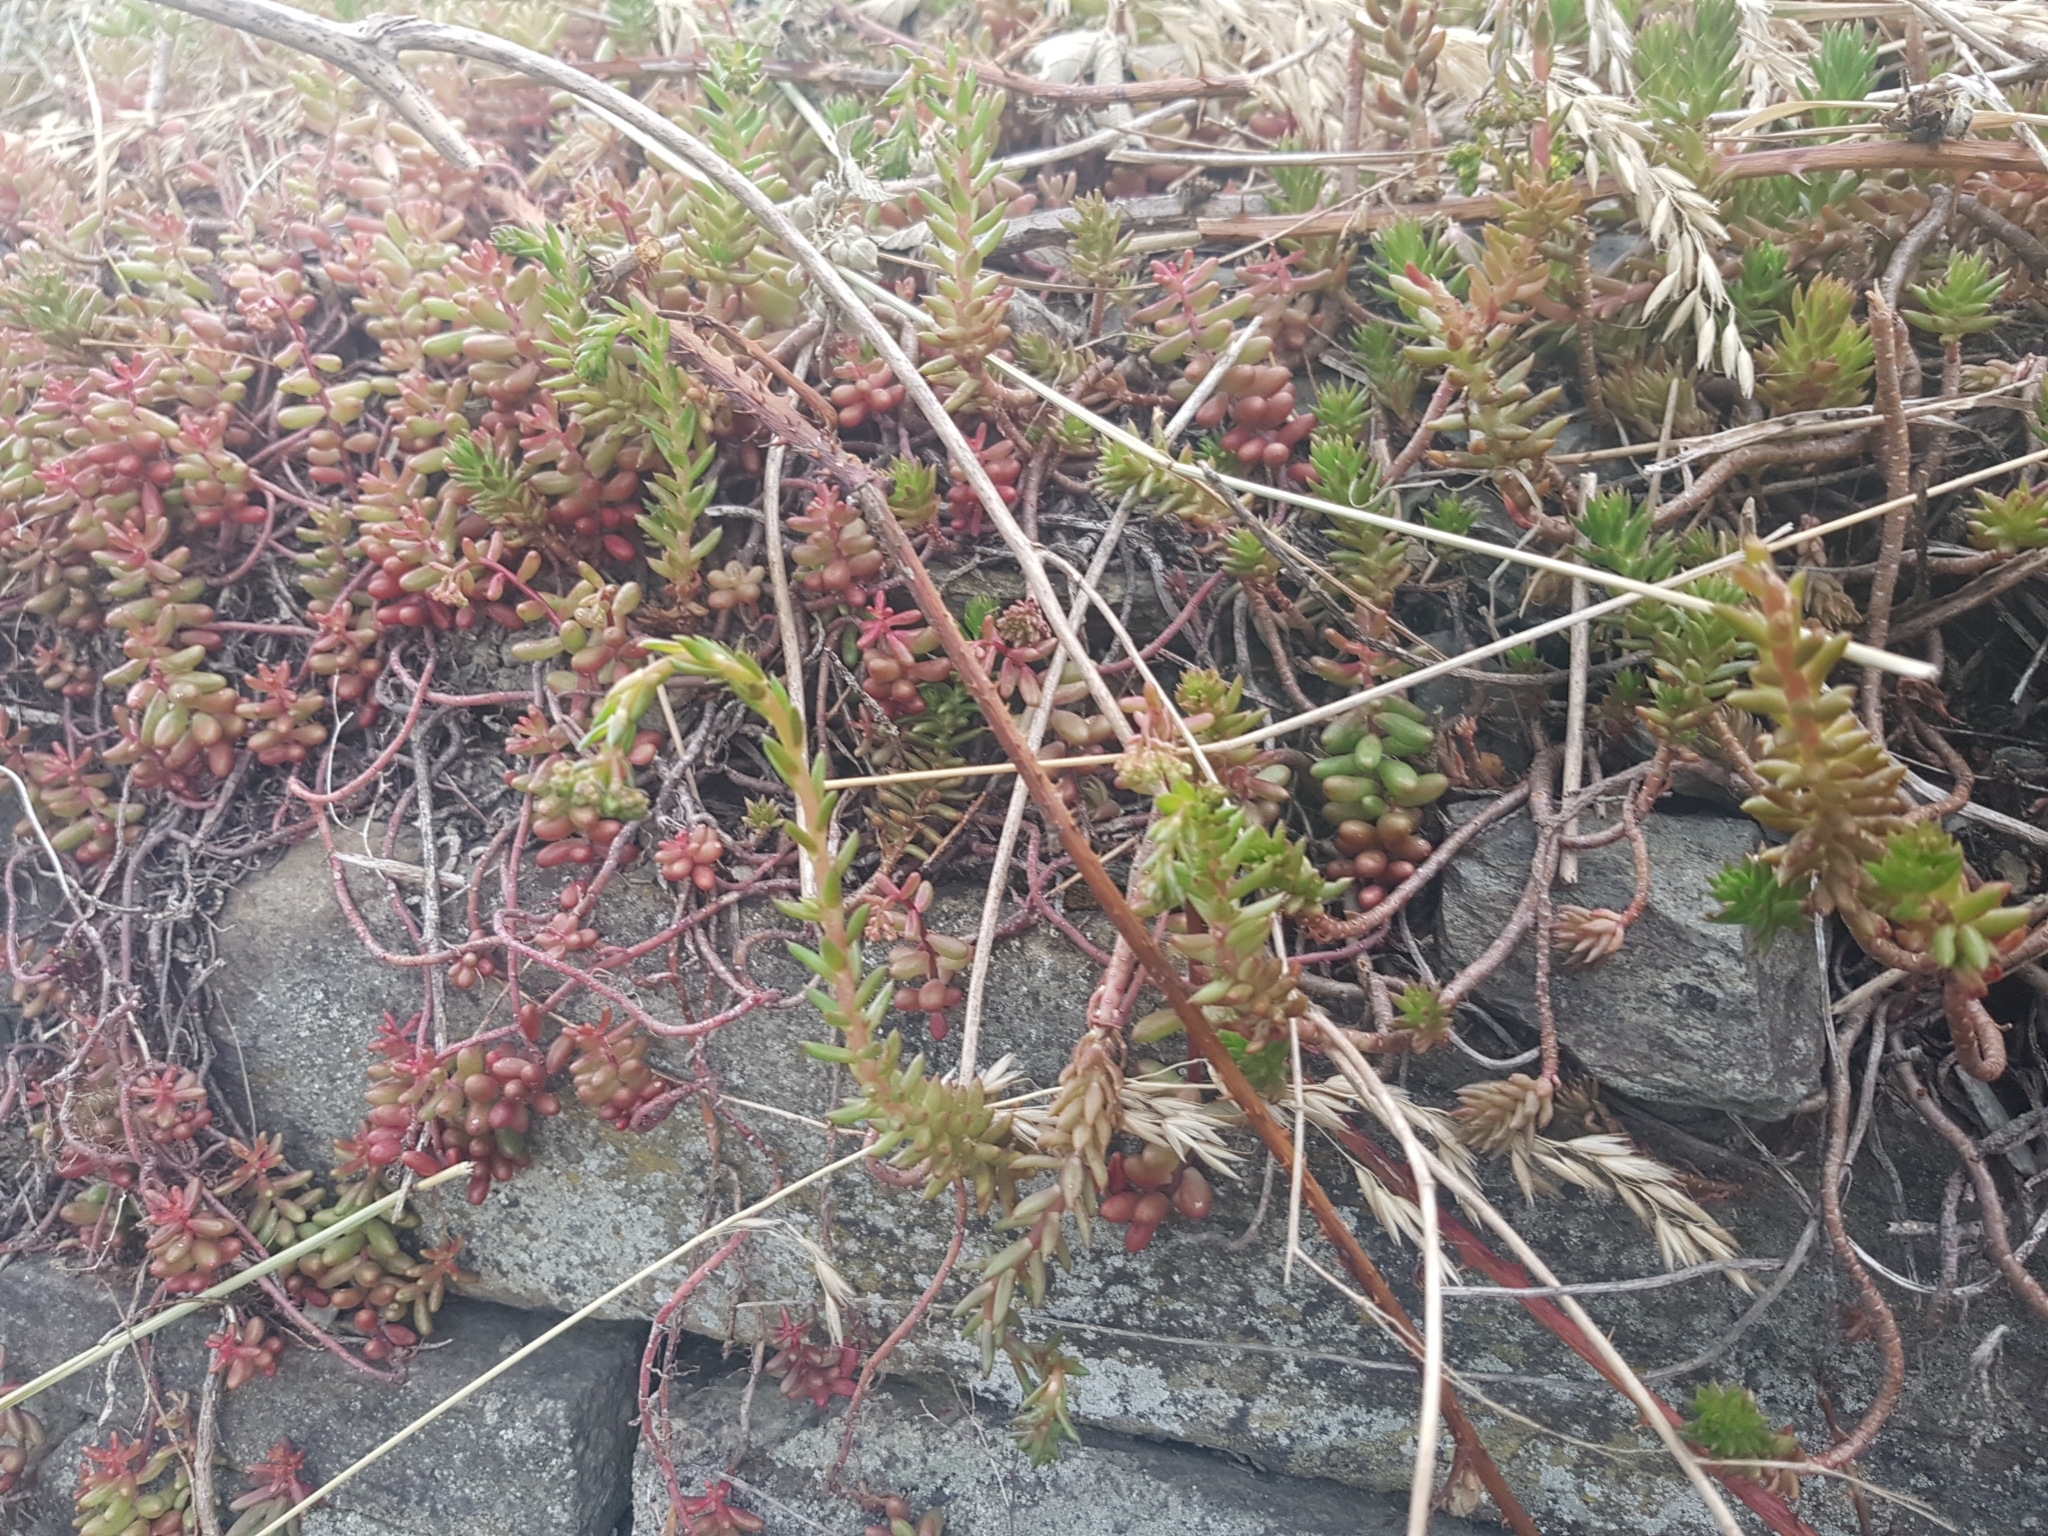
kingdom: Plantae
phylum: Tracheophyta
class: Magnoliopsida
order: Saxifragales
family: Crassulaceae
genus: Sedum
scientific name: Sedum album
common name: White stonecrop
